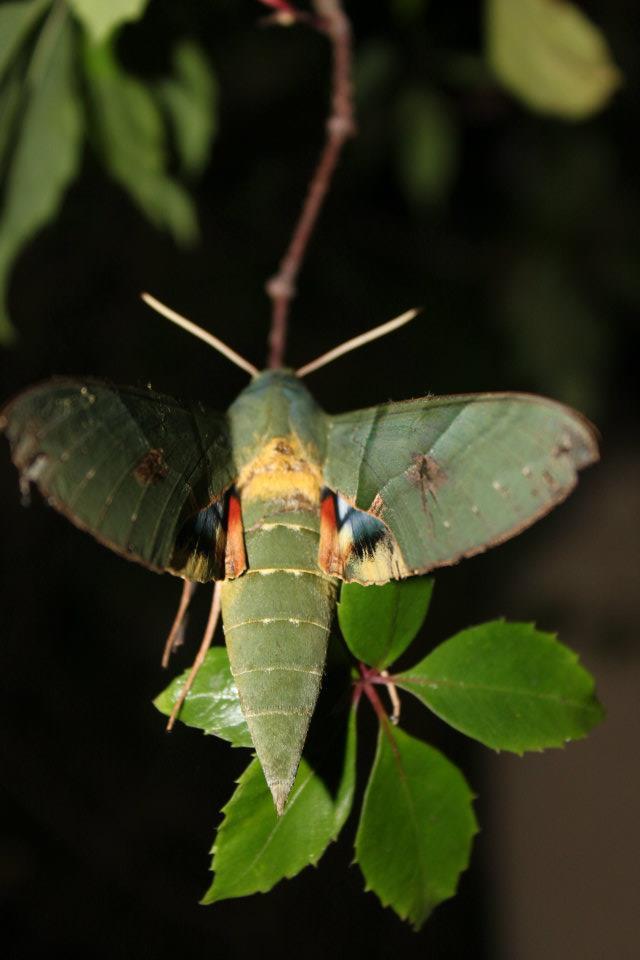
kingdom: Animalia
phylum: Arthropoda
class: Insecta
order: Lepidoptera
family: Sphingidae
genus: Eumorpha
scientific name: Eumorpha labruscae
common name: Gaudy sphinx
